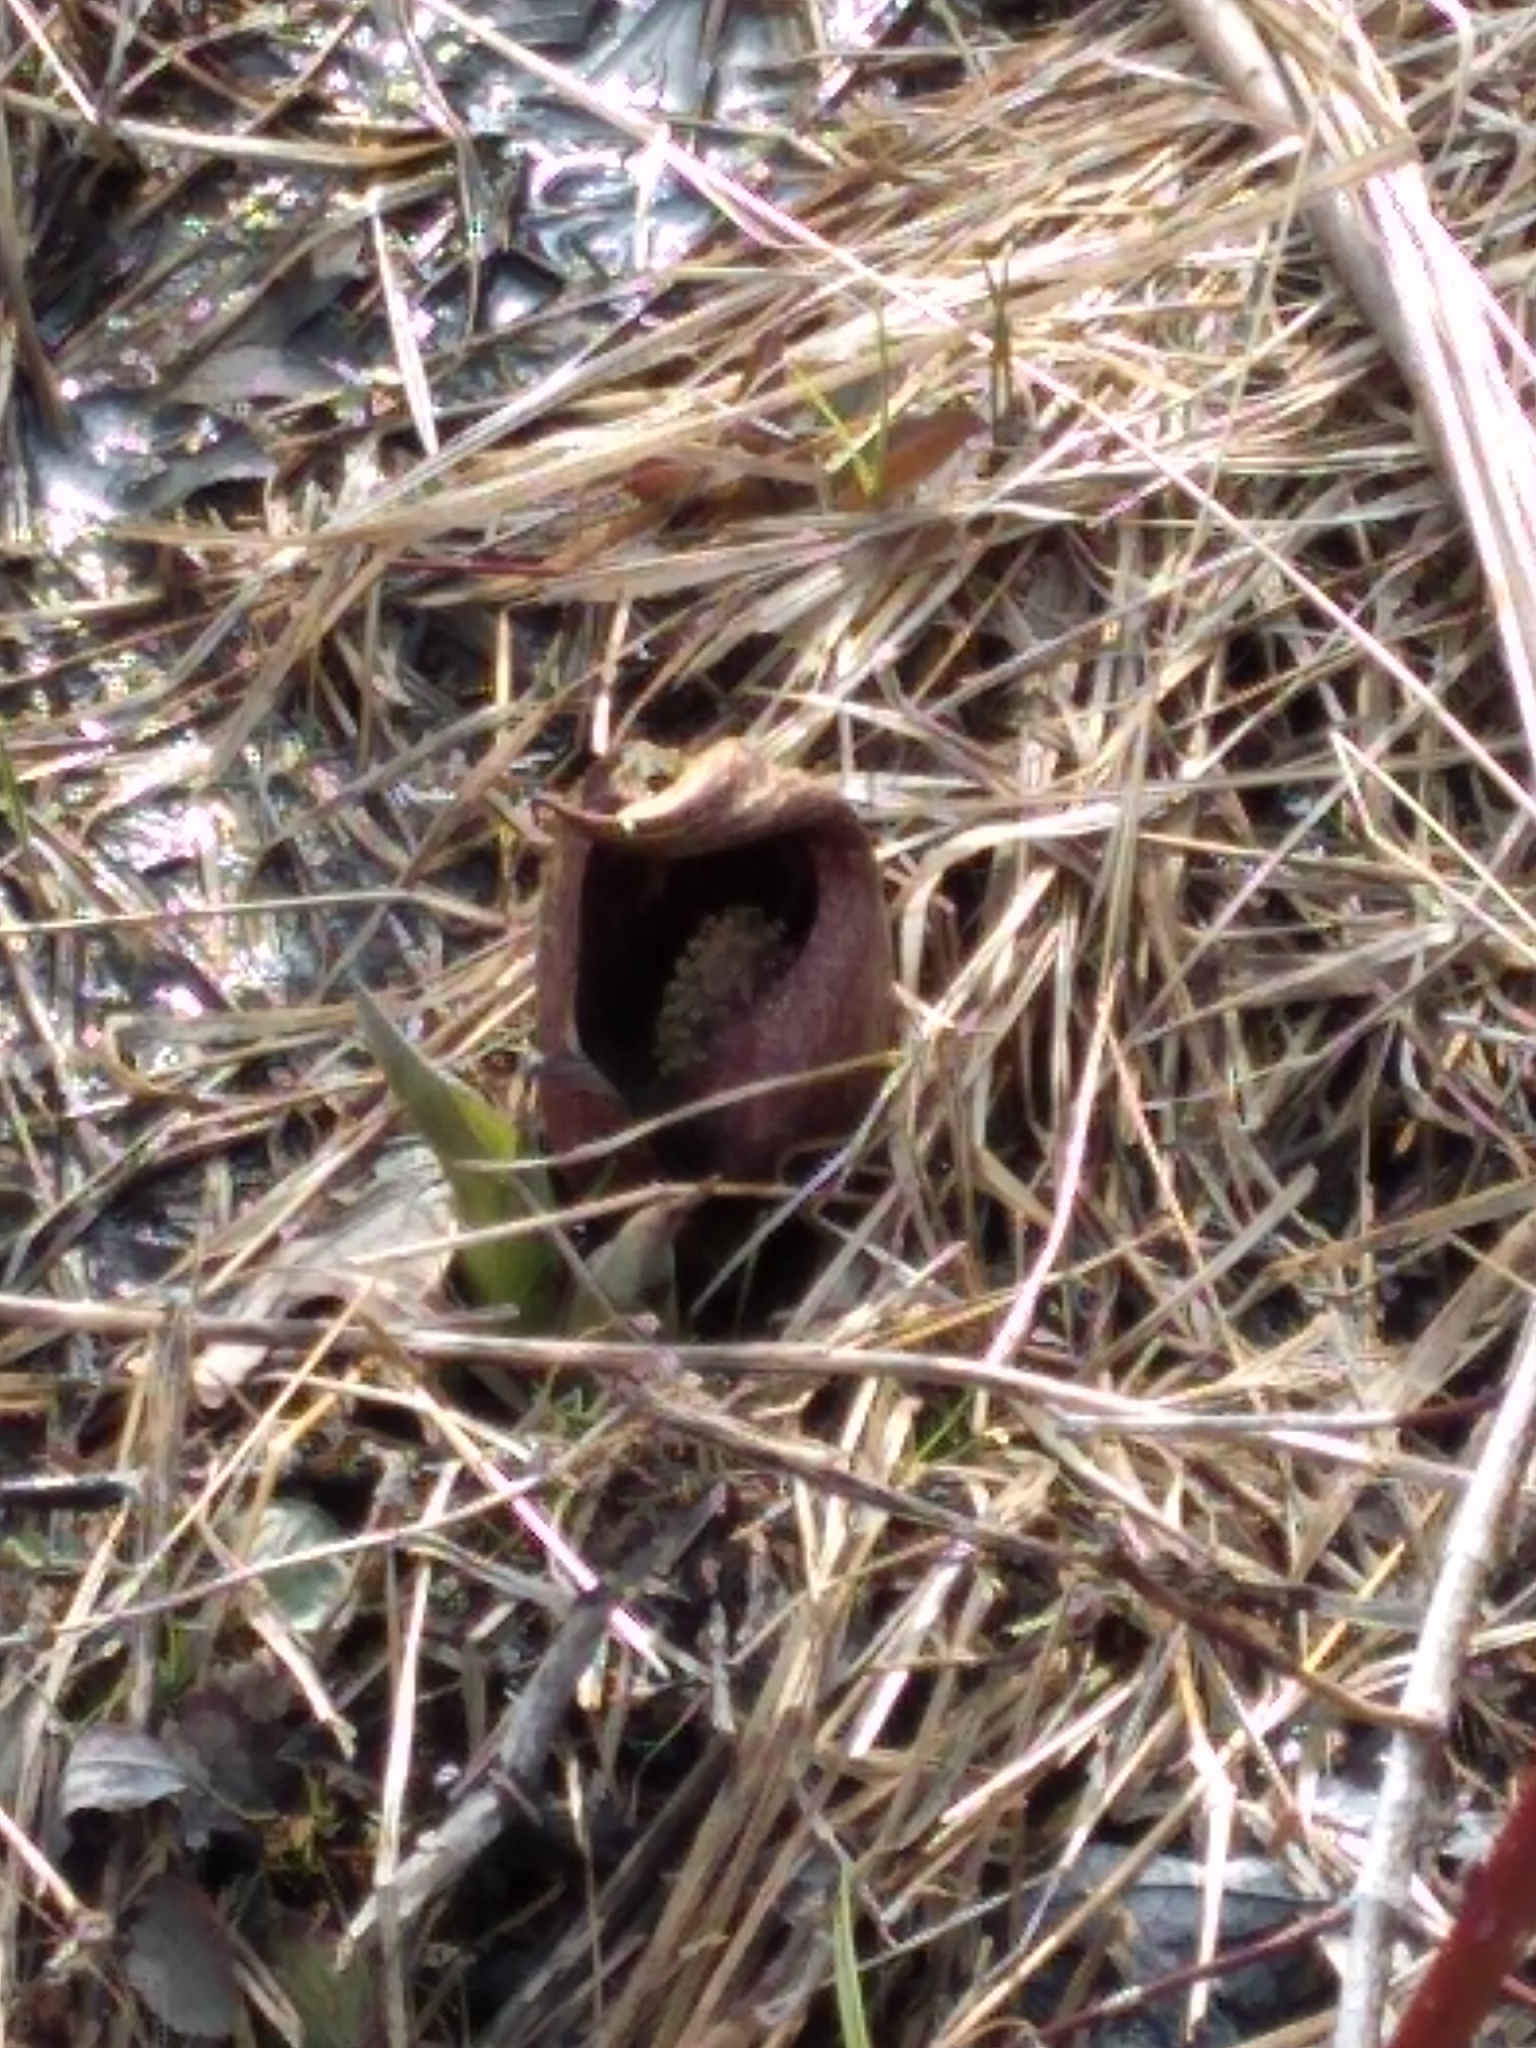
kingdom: Plantae
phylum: Tracheophyta
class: Liliopsida
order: Alismatales
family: Araceae
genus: Symplocarpus
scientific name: Symplocarpus foetidus
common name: Eastern skunk cabbage
